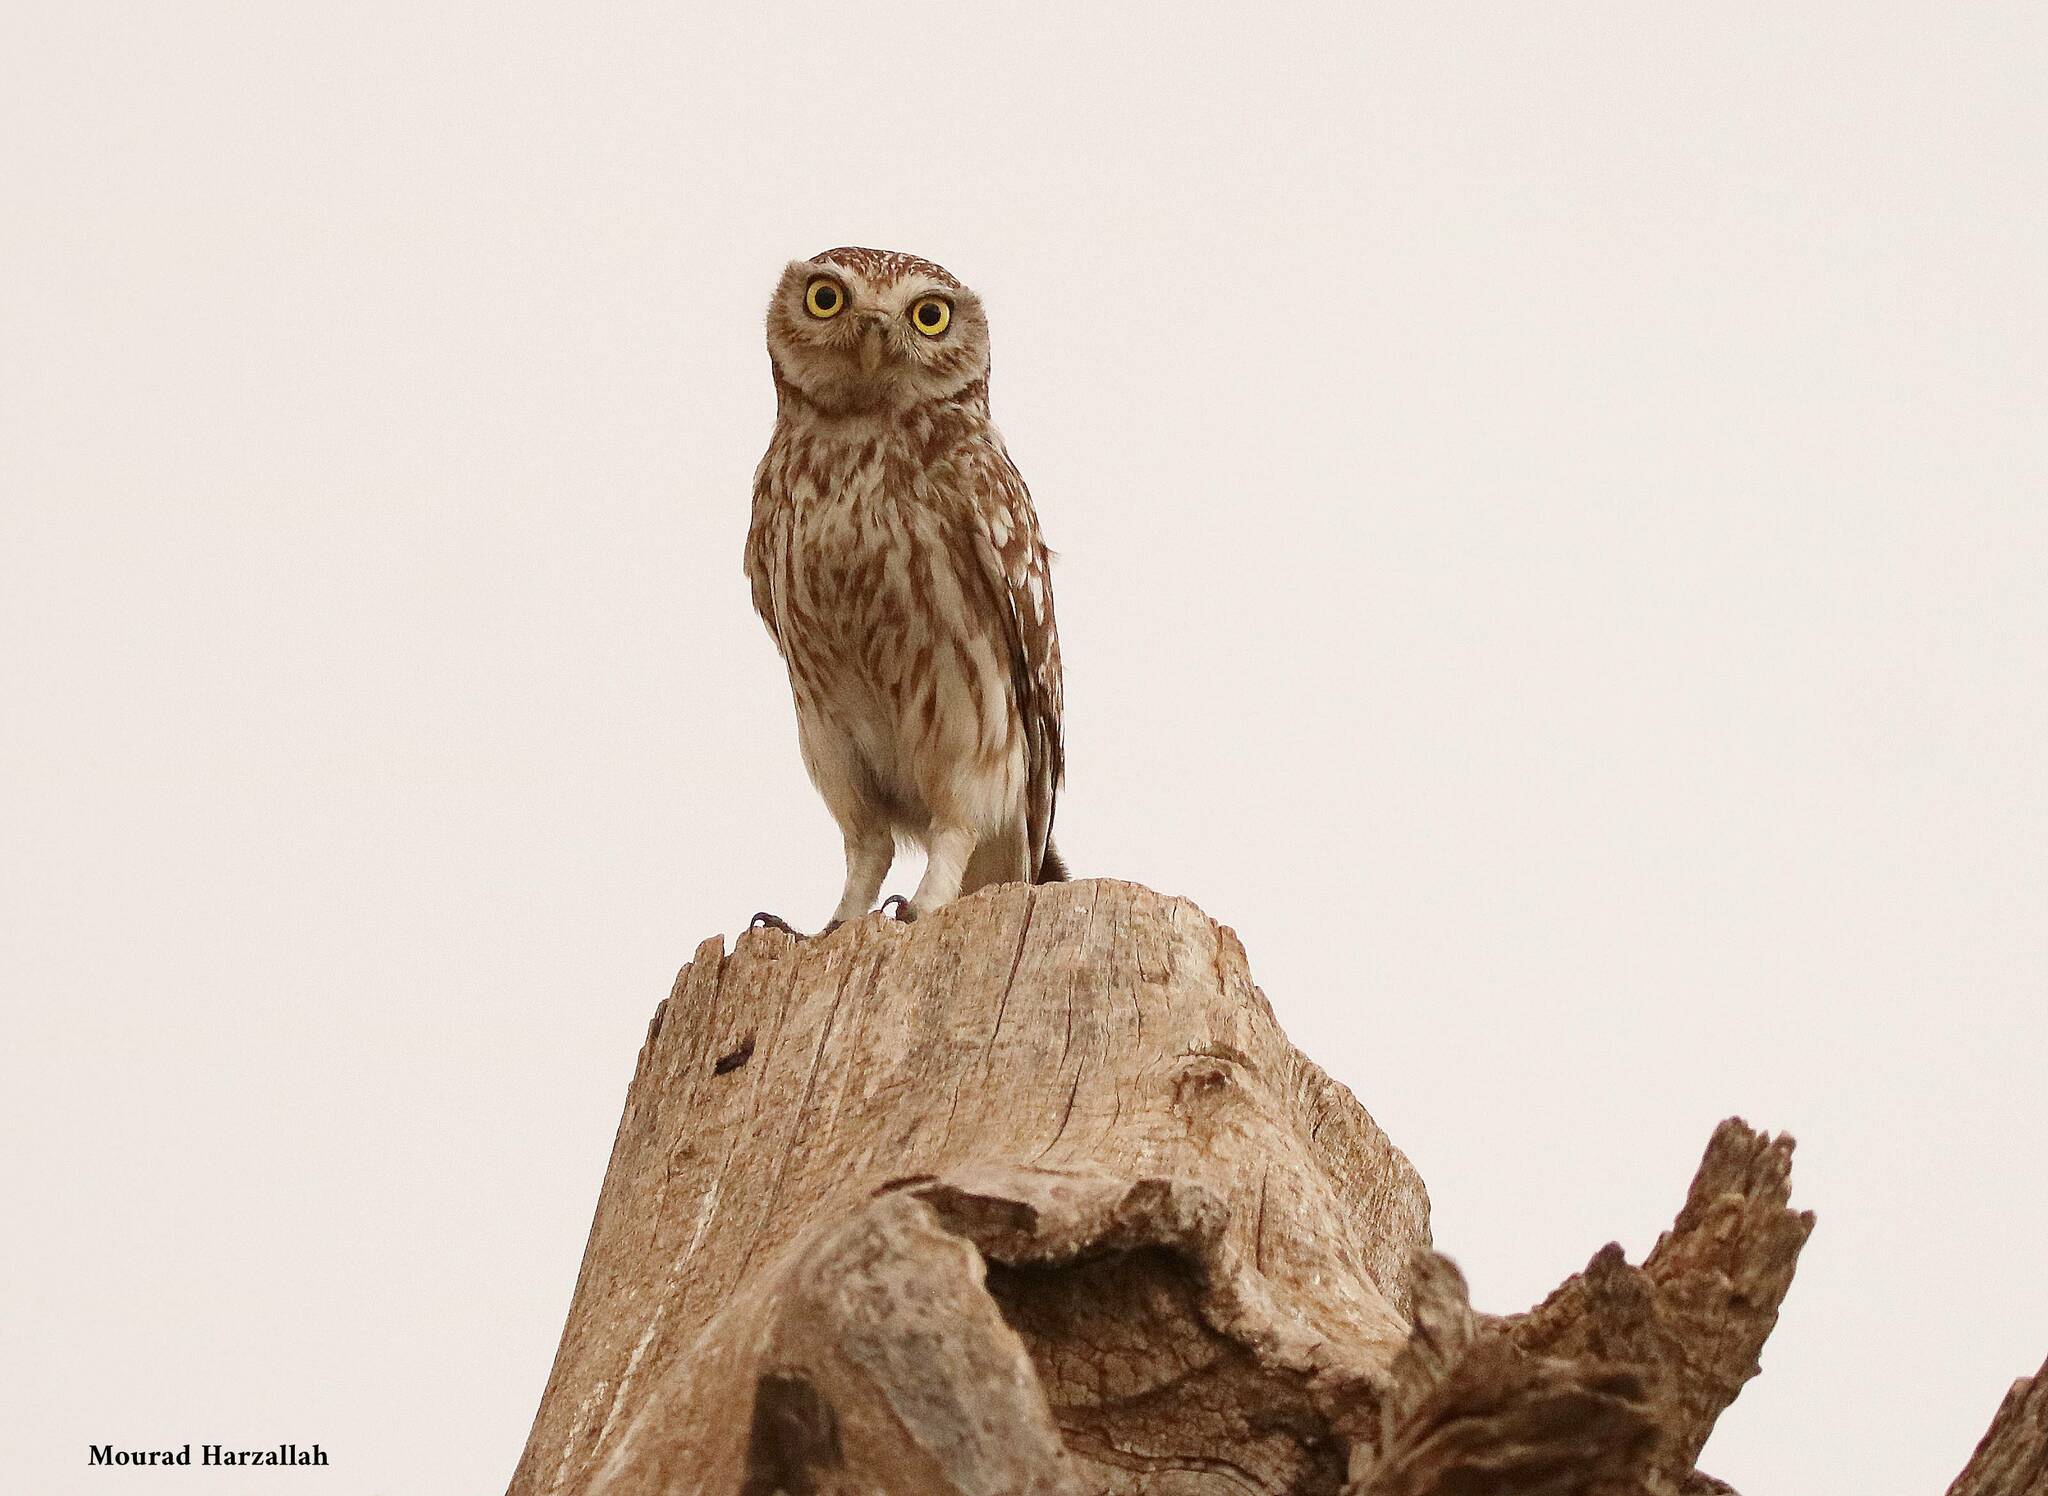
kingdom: Animalia
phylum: Chordata
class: Aves
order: Strigiformes
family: Strigidae
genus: Athene
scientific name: Athene noctua
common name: Little owl
